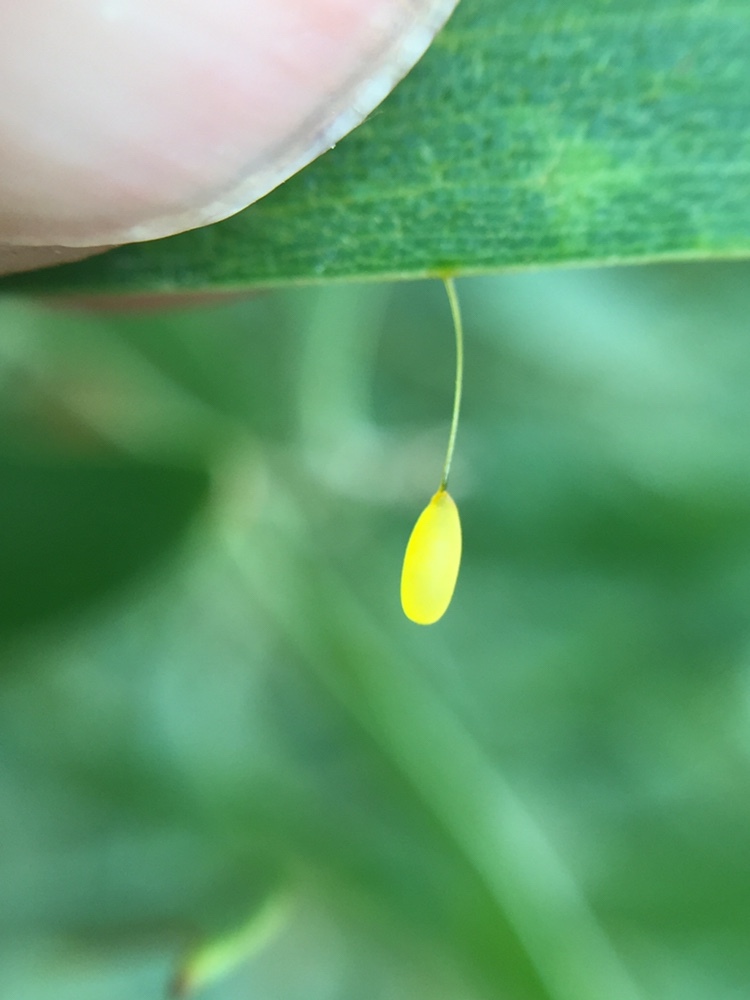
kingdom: Animalia
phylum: Arthropoda
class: Insecta
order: Coleoptera
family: Chrysomelidae
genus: Dicranosterna
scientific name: Dicranosterna
